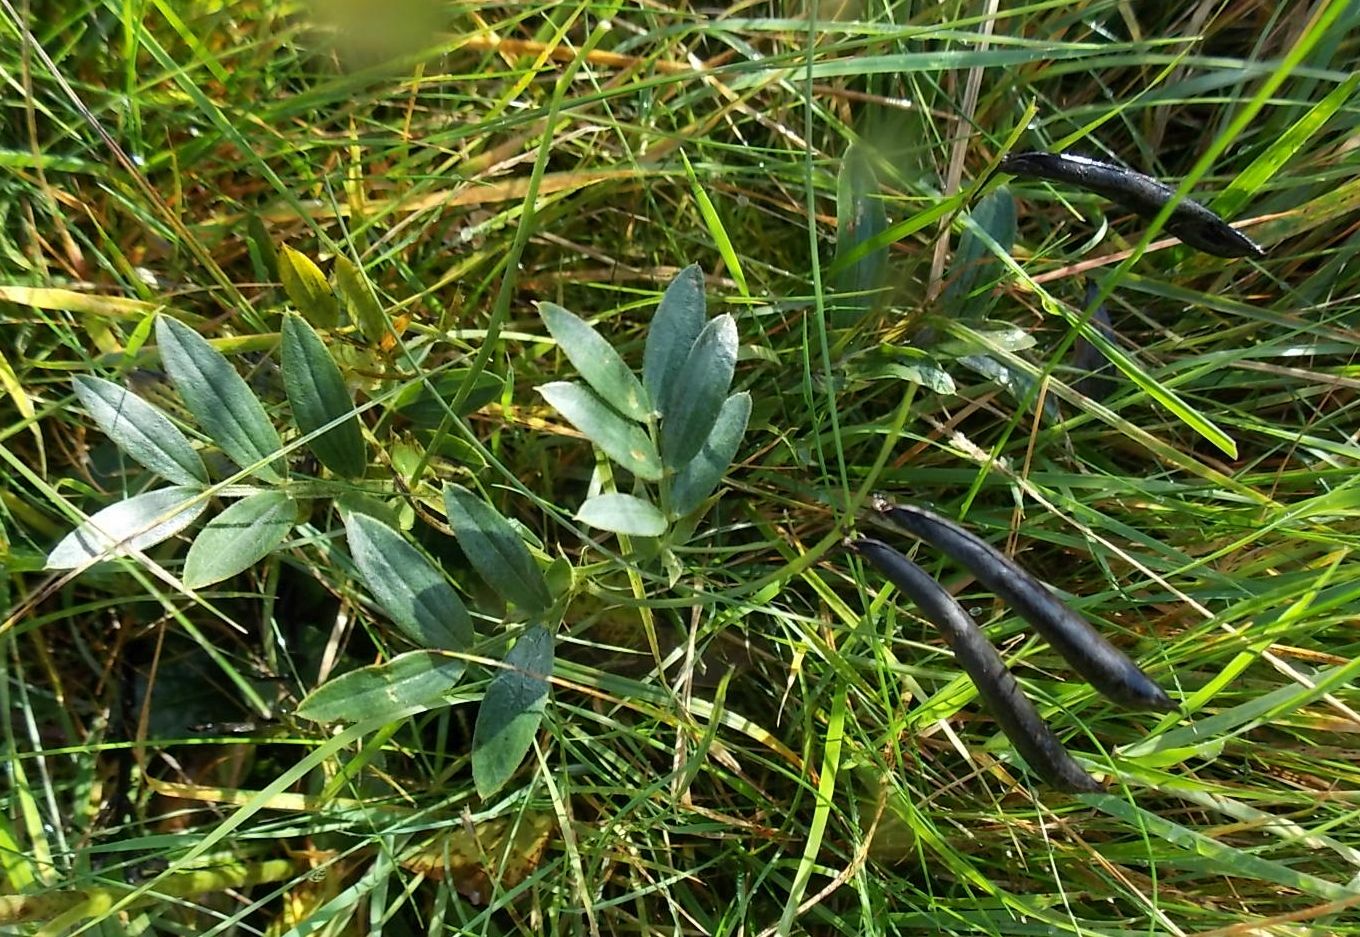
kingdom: Plantae
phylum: Tracheophyta
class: Magnoliopsida
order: Fabales
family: Fabaceae
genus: Lathyrus
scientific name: Lathyrus linifolius
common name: Bitter-vetch
